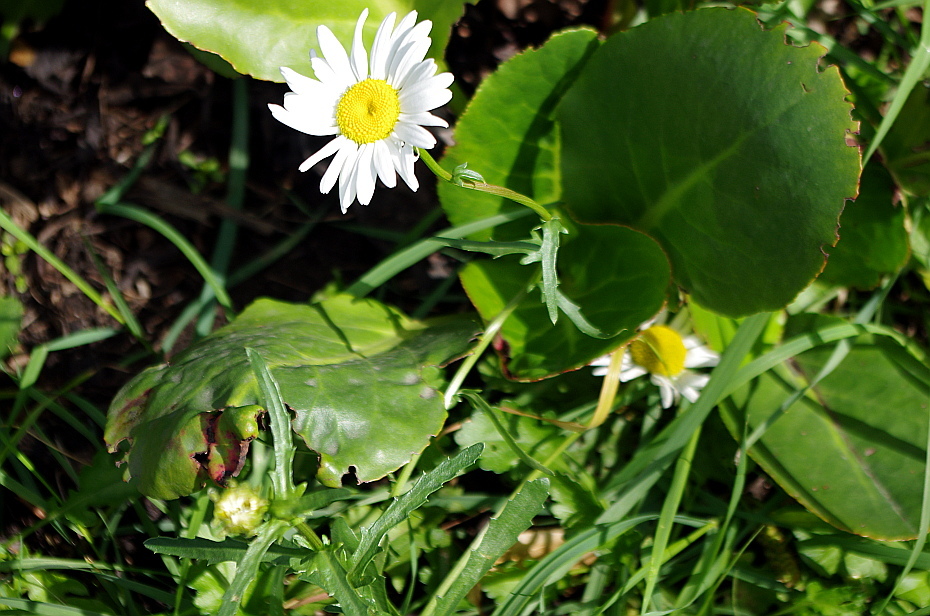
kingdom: Plantae
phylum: Tracheophyta
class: Magnoliopsida
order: Asterales
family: Asteraceae
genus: Leucanthemum
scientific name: Leucanthemum vulgare
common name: Oxeye daisy
